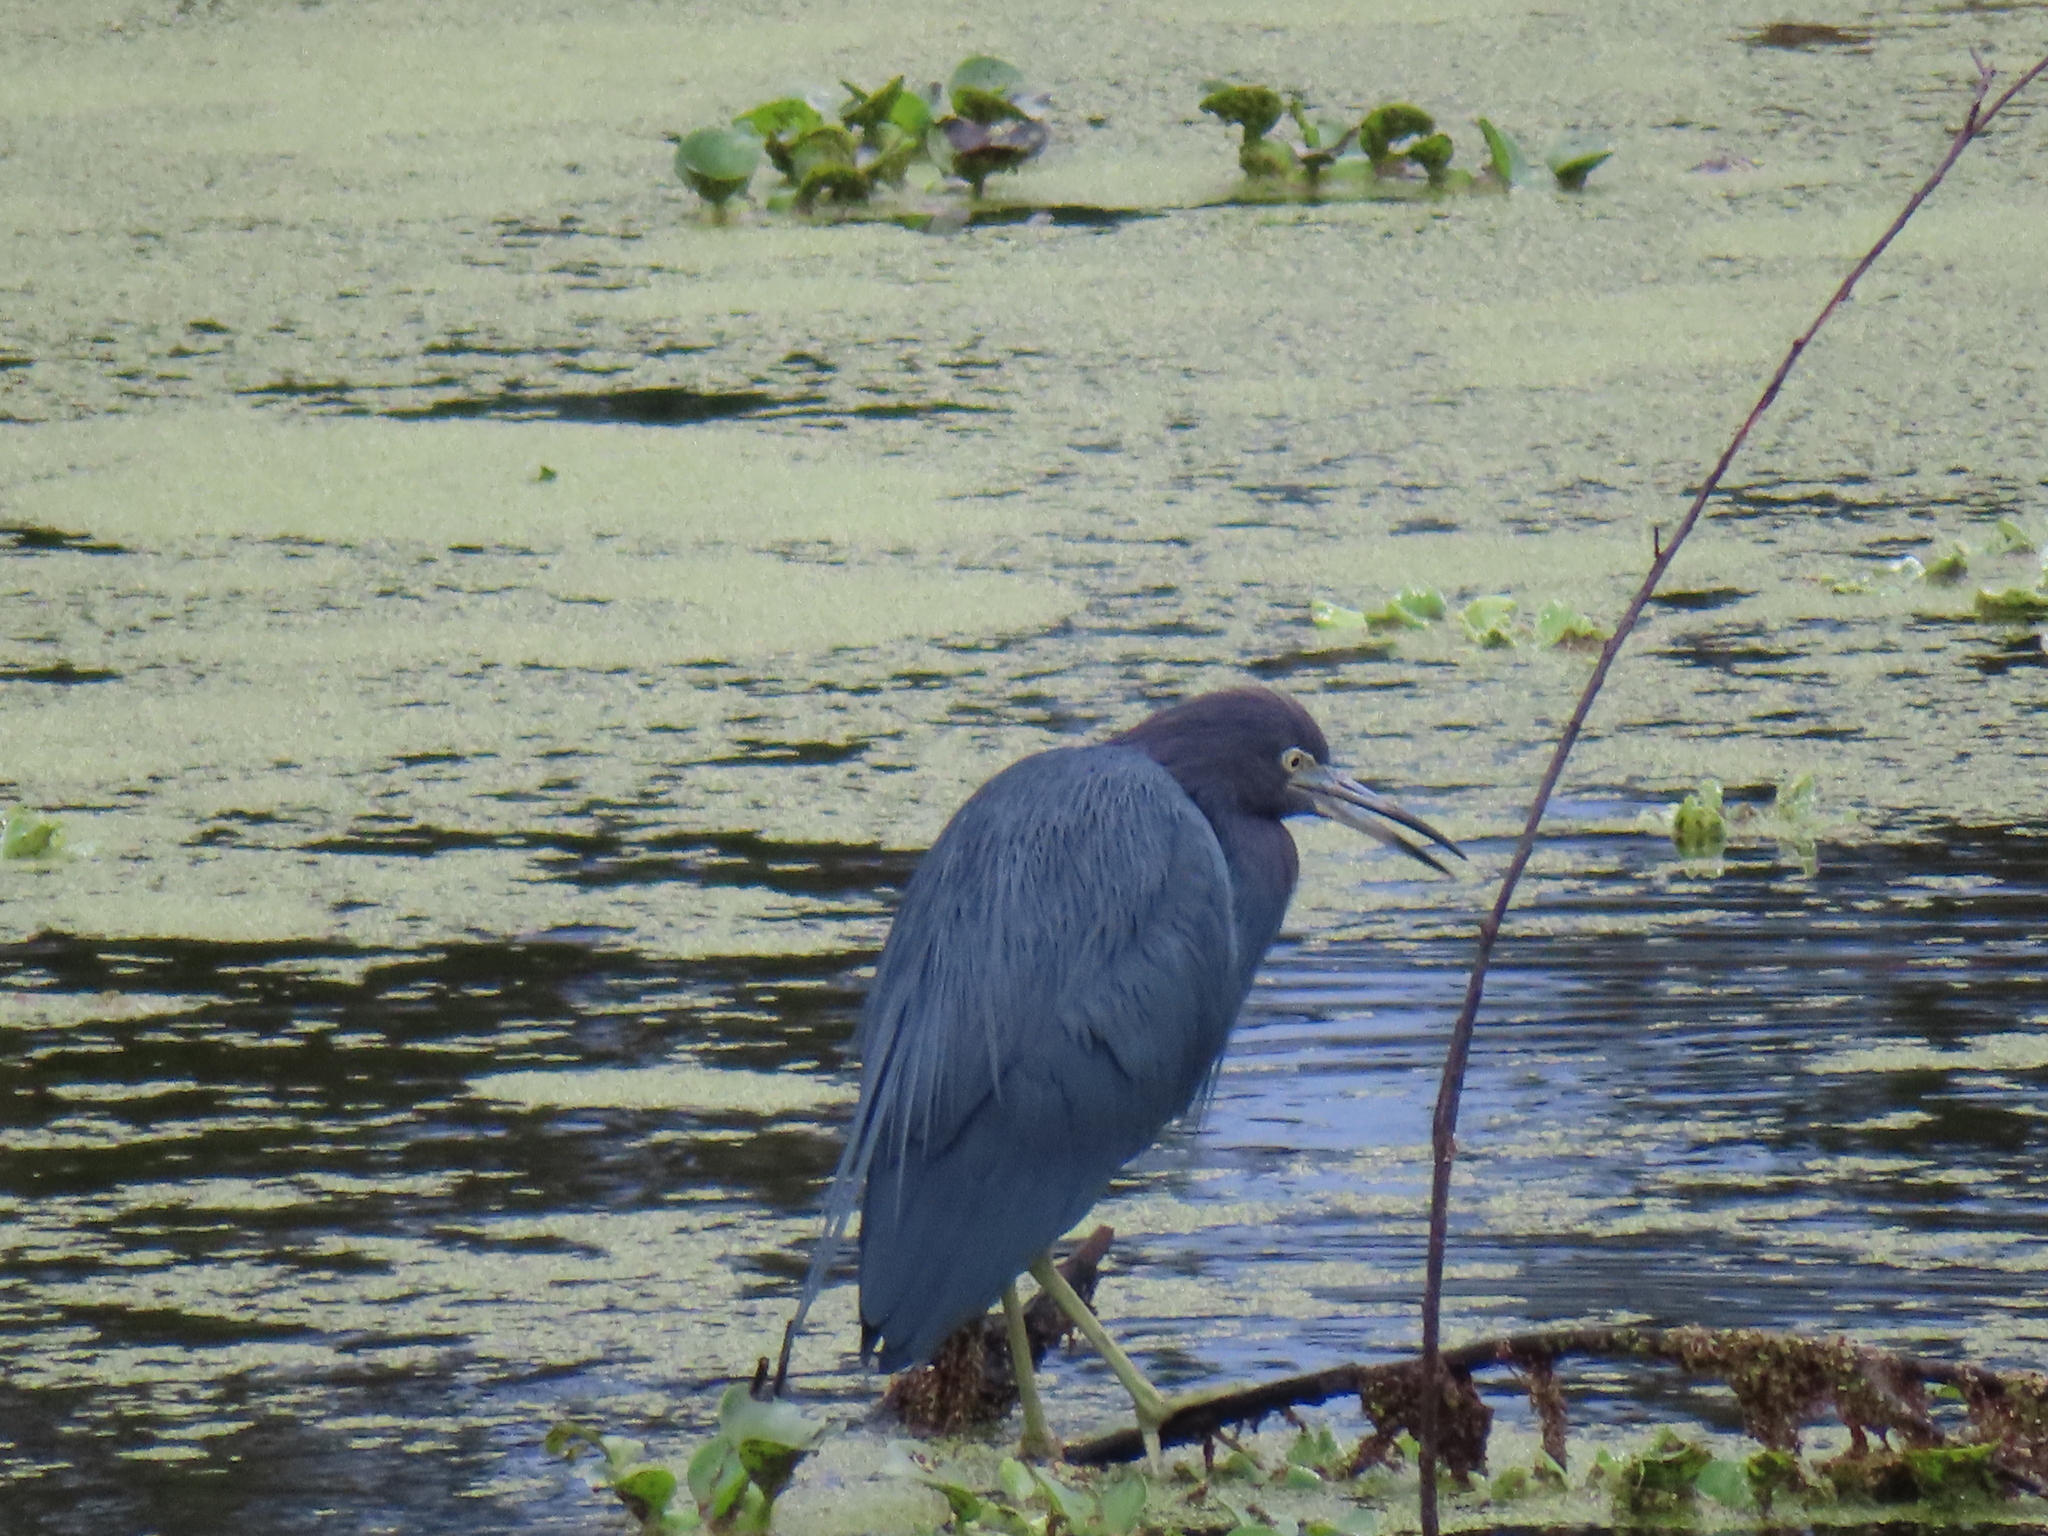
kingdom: Animalia
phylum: Chordata
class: Aves
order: Pelecaniformes
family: Ardeidae
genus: Egretta
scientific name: Egretta caerulea
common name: Little blue heron
